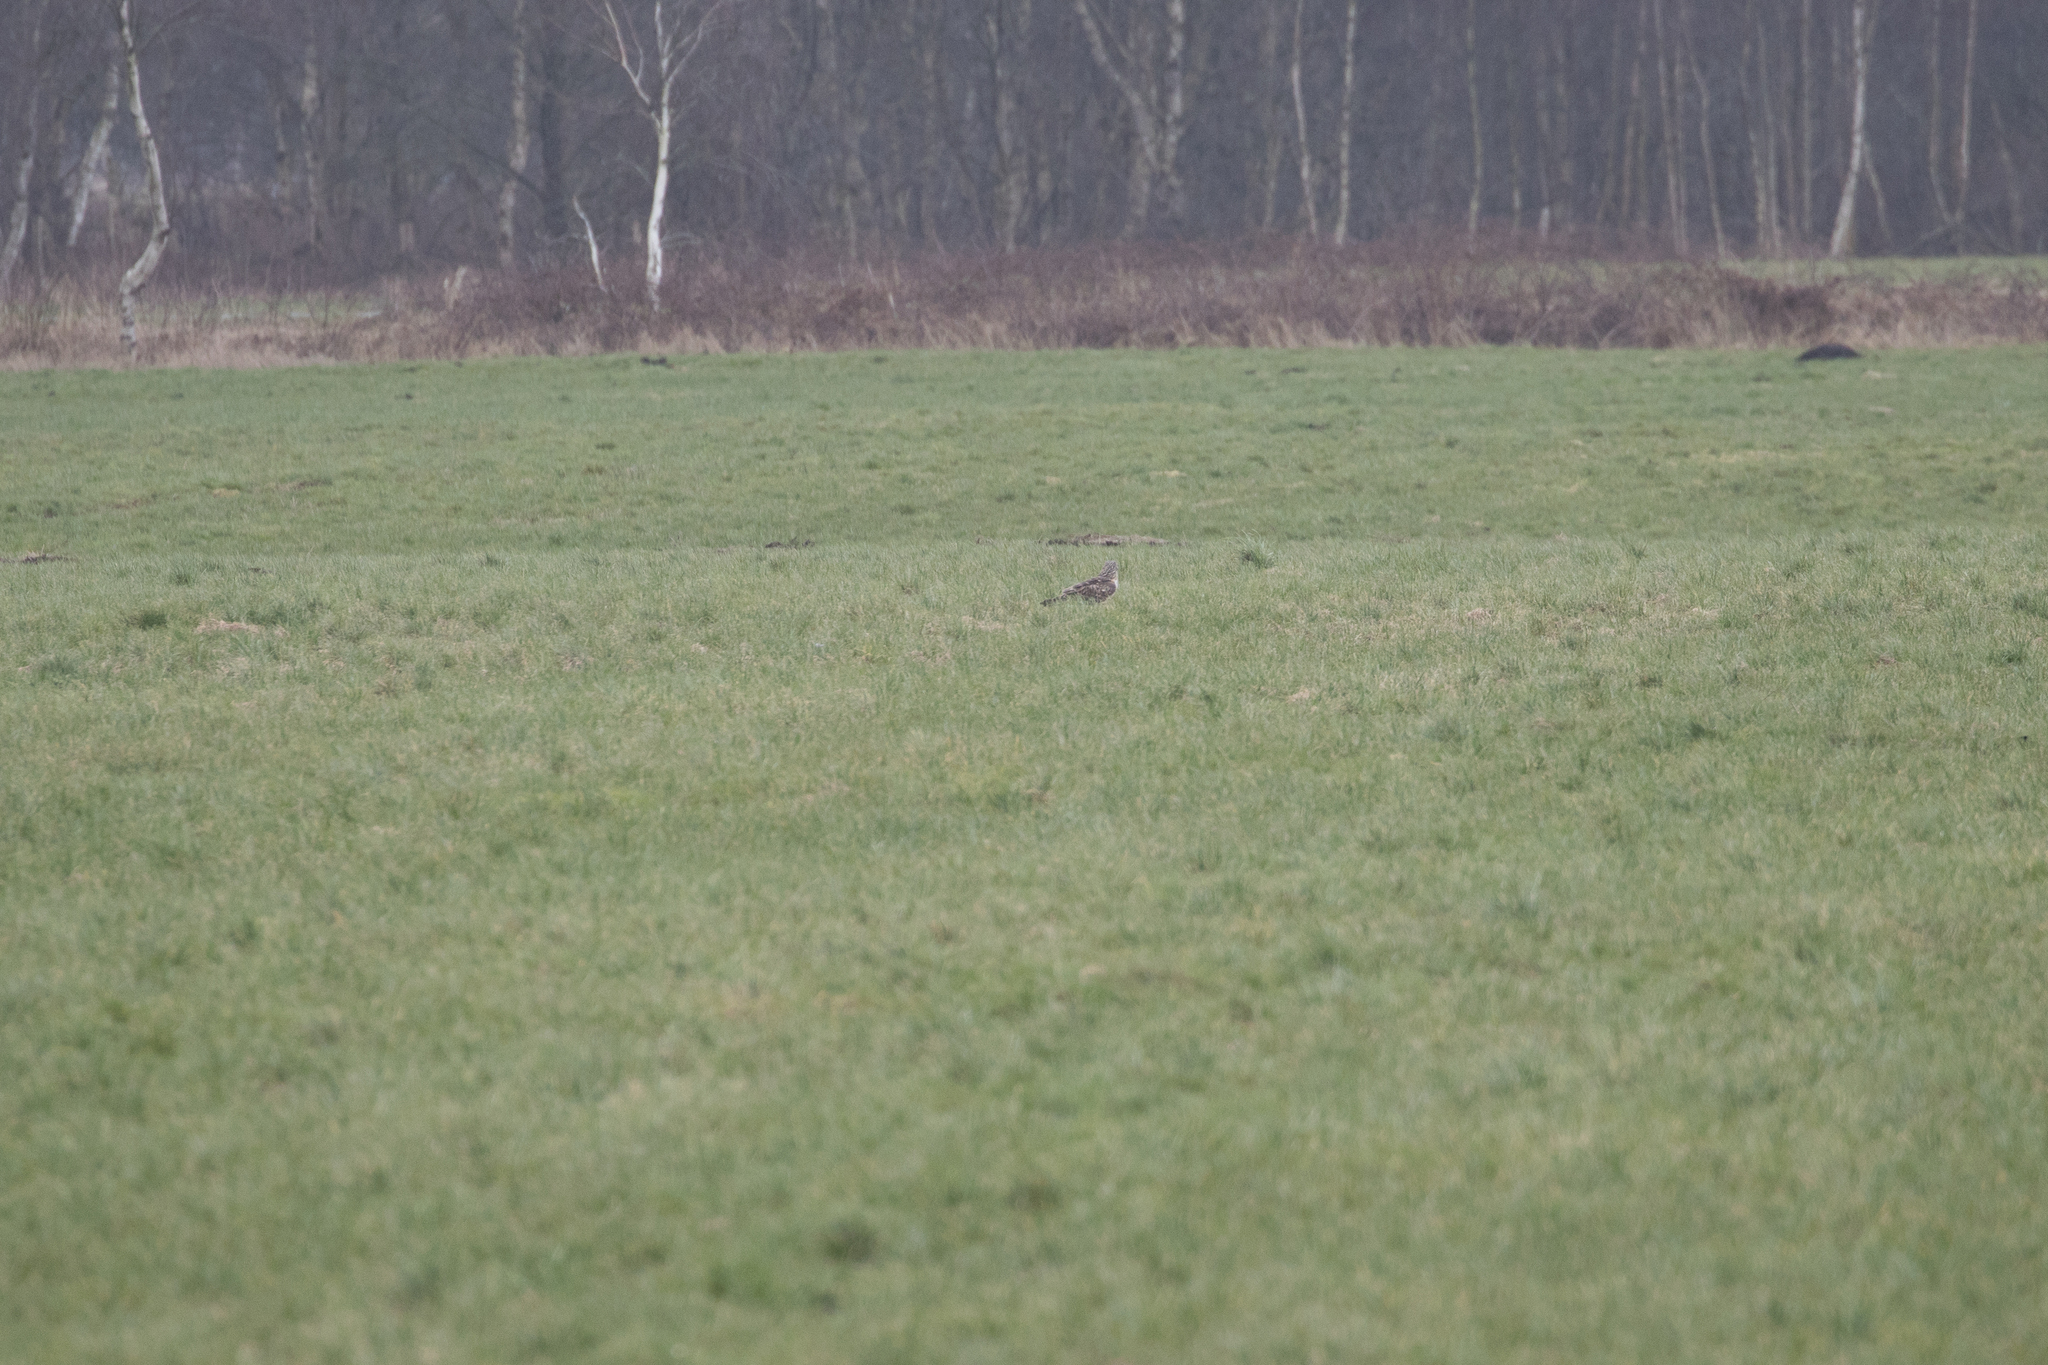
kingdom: Animalia
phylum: Chordata
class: Aves
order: Accipitriformes
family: Accipitridae
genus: Circus
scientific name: Circus cyaneus
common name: Hen harrier
